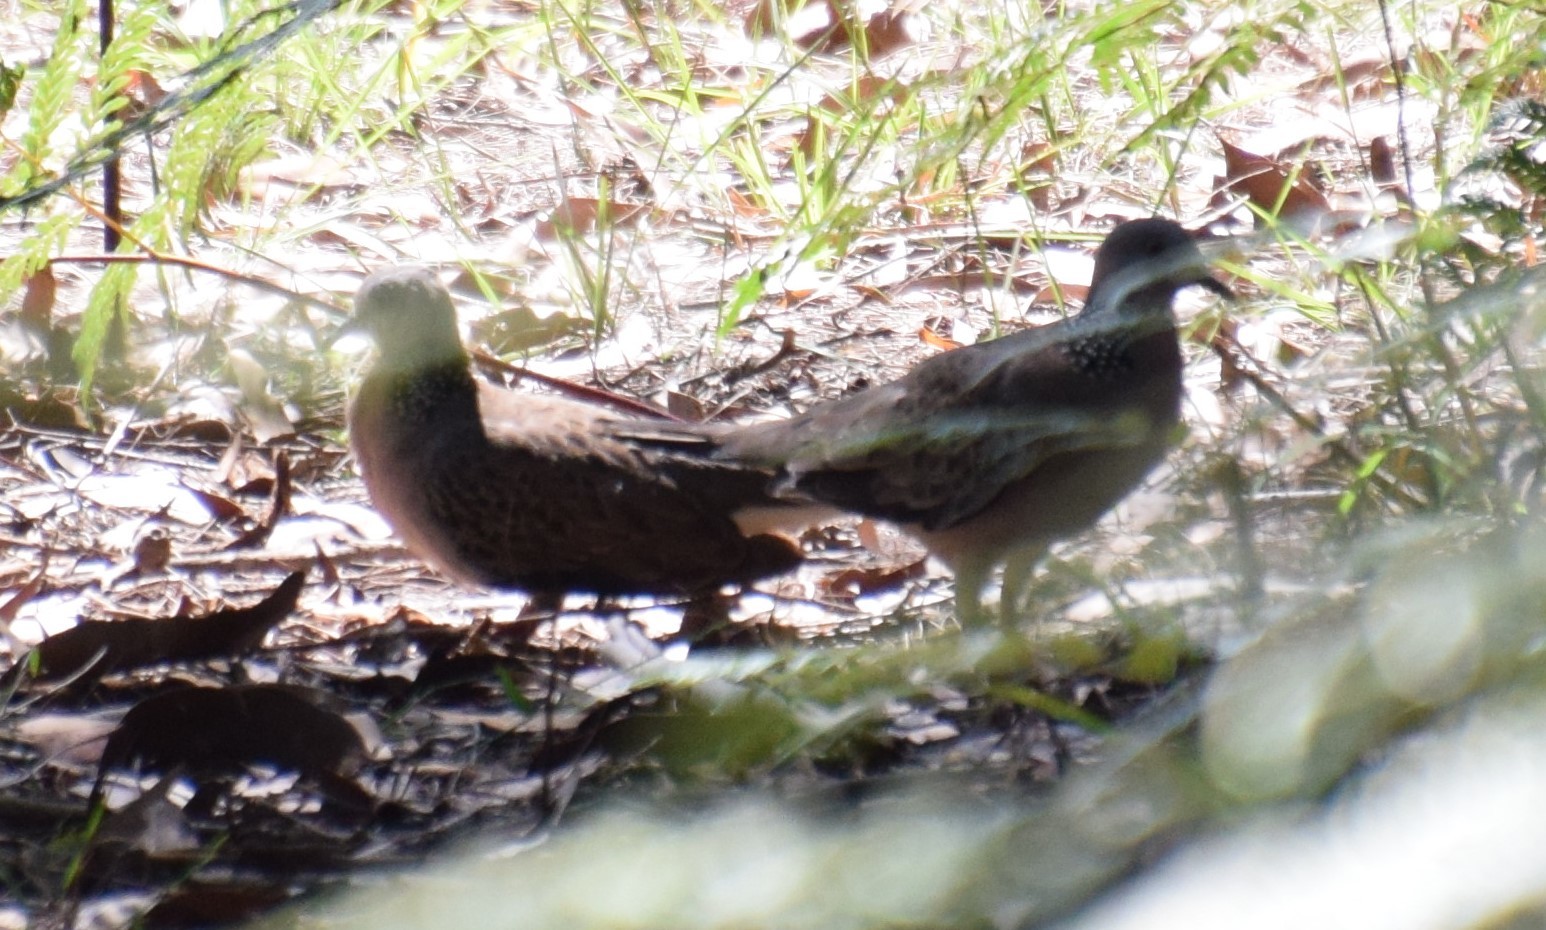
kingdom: Animalia
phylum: Chordata
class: Aves
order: Columbiformes
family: Columbidae
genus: Spilopelia
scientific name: Spilopelia chinensis
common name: Spotted dove
